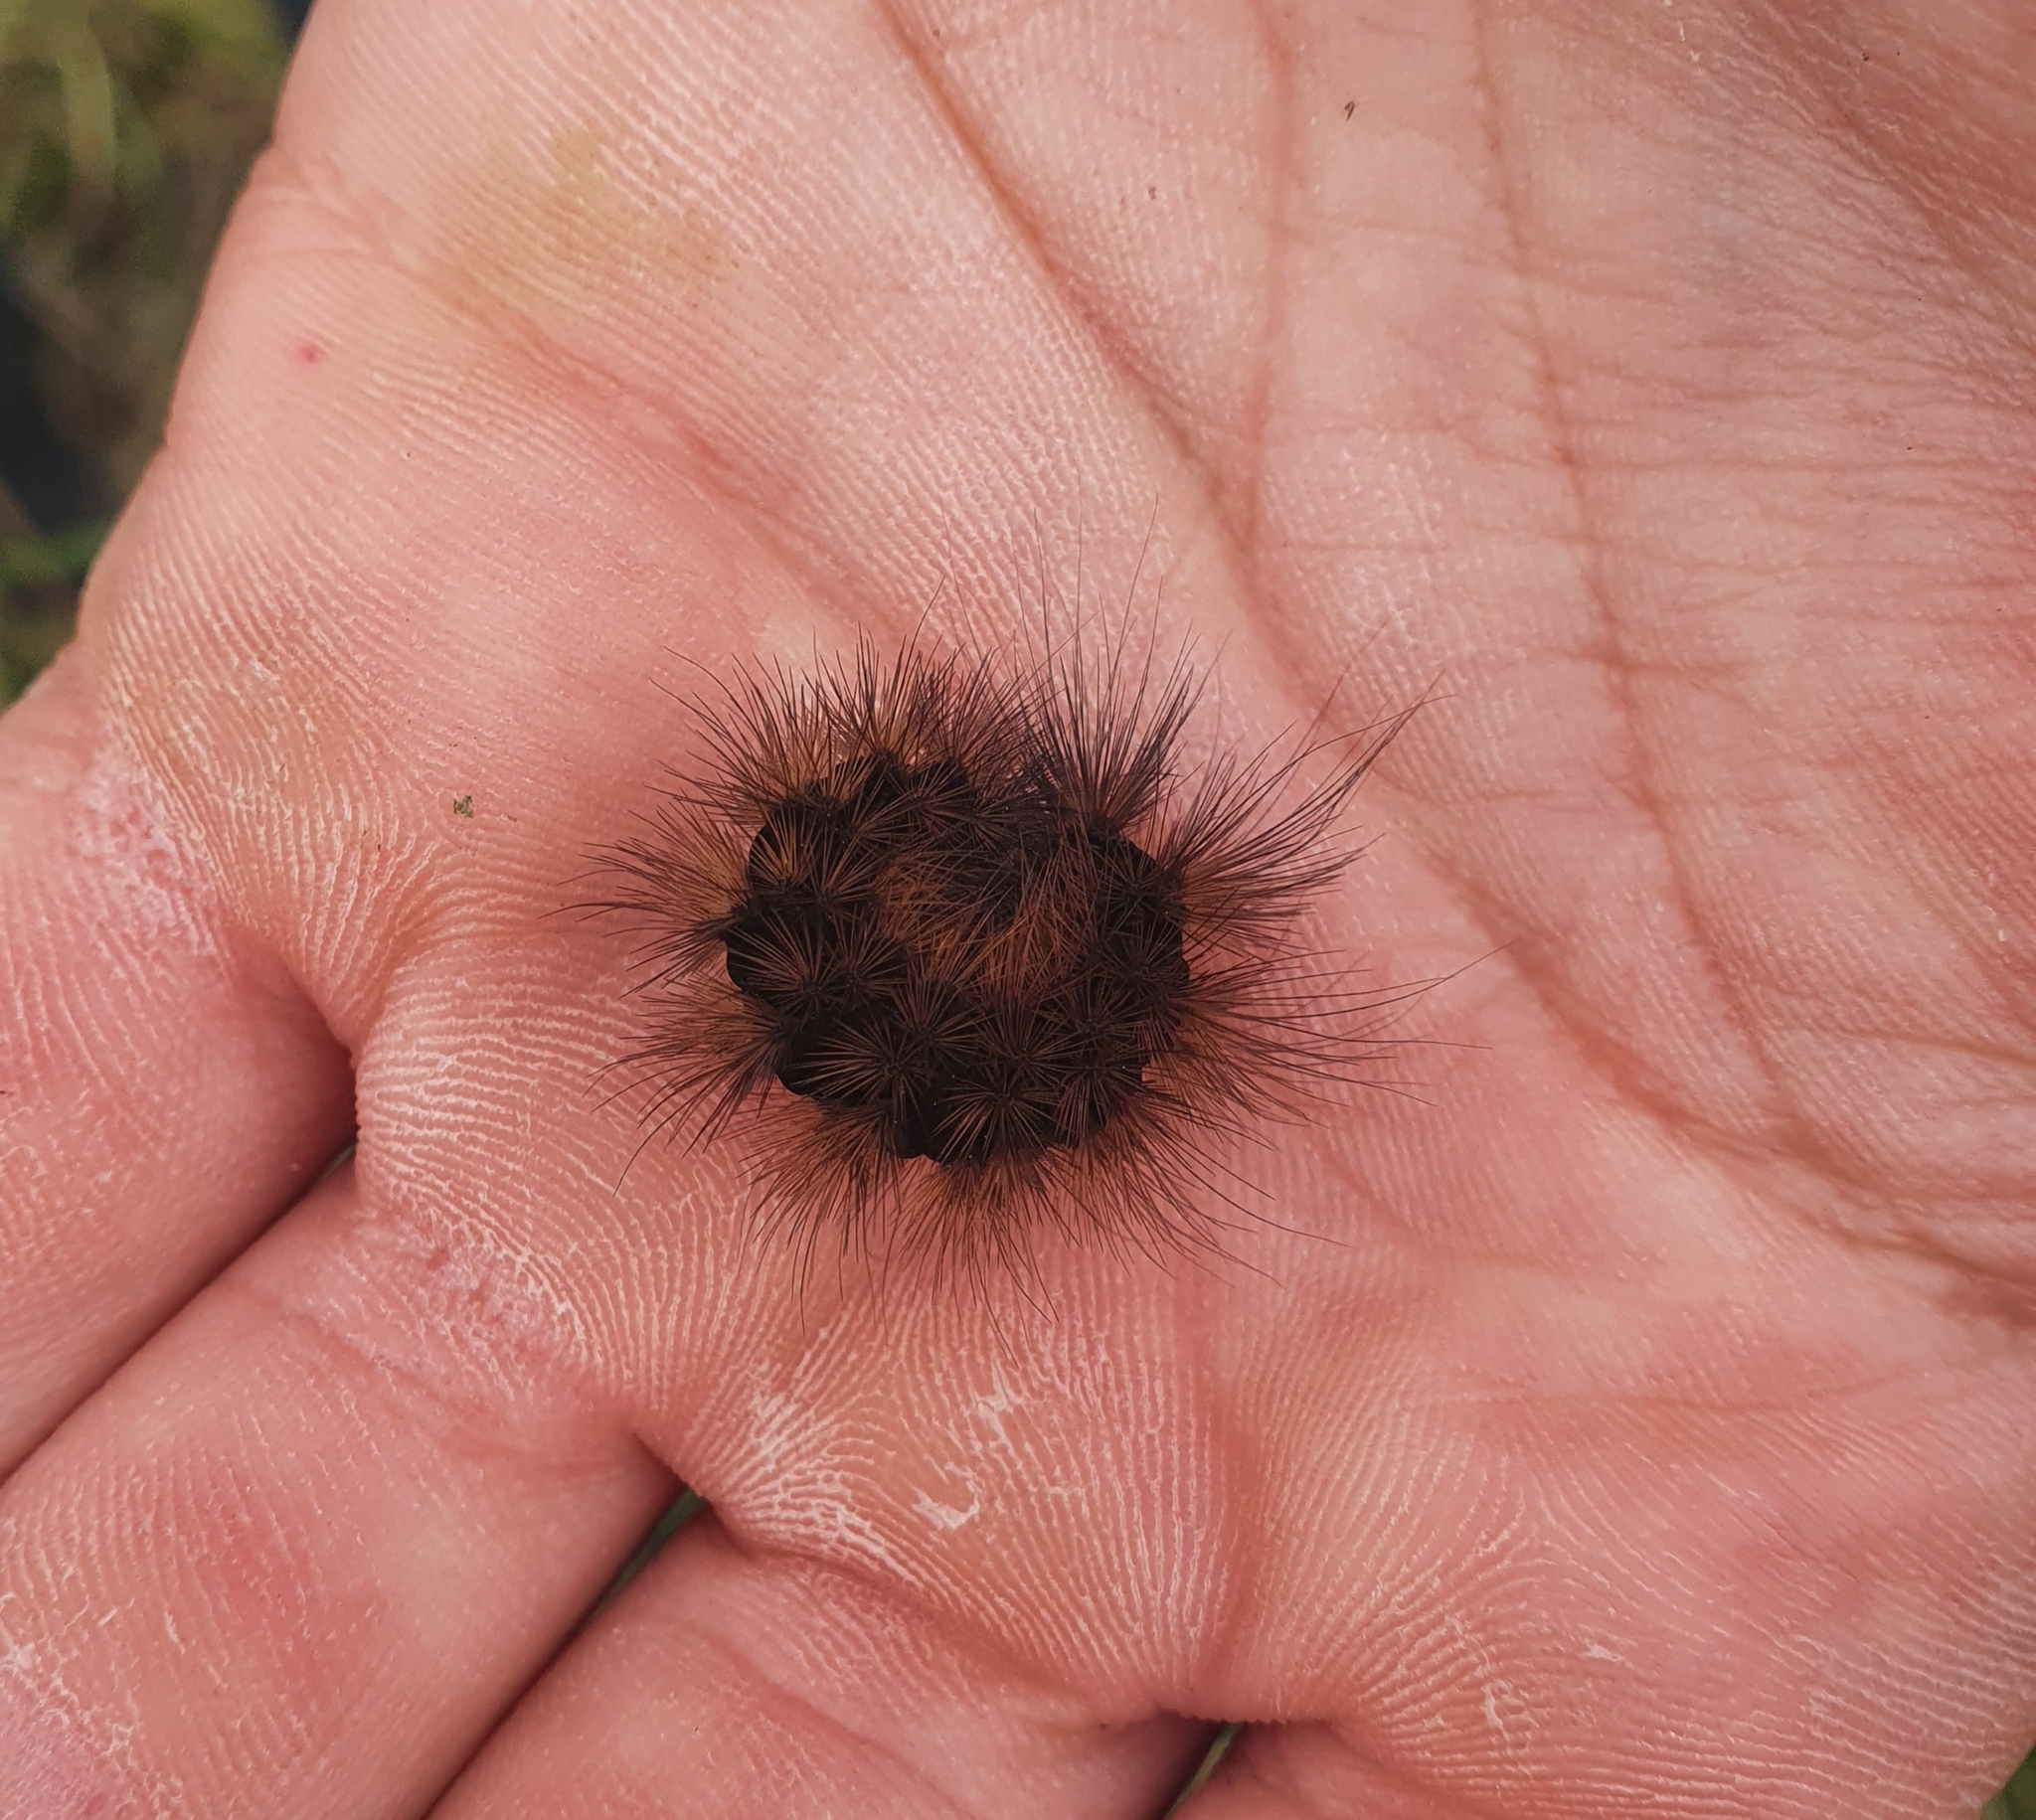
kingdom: Animalia
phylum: Arthropoda
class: Insecta
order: Lepidoptera
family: Erebidae
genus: Epicallia
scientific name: Epicallia villica
